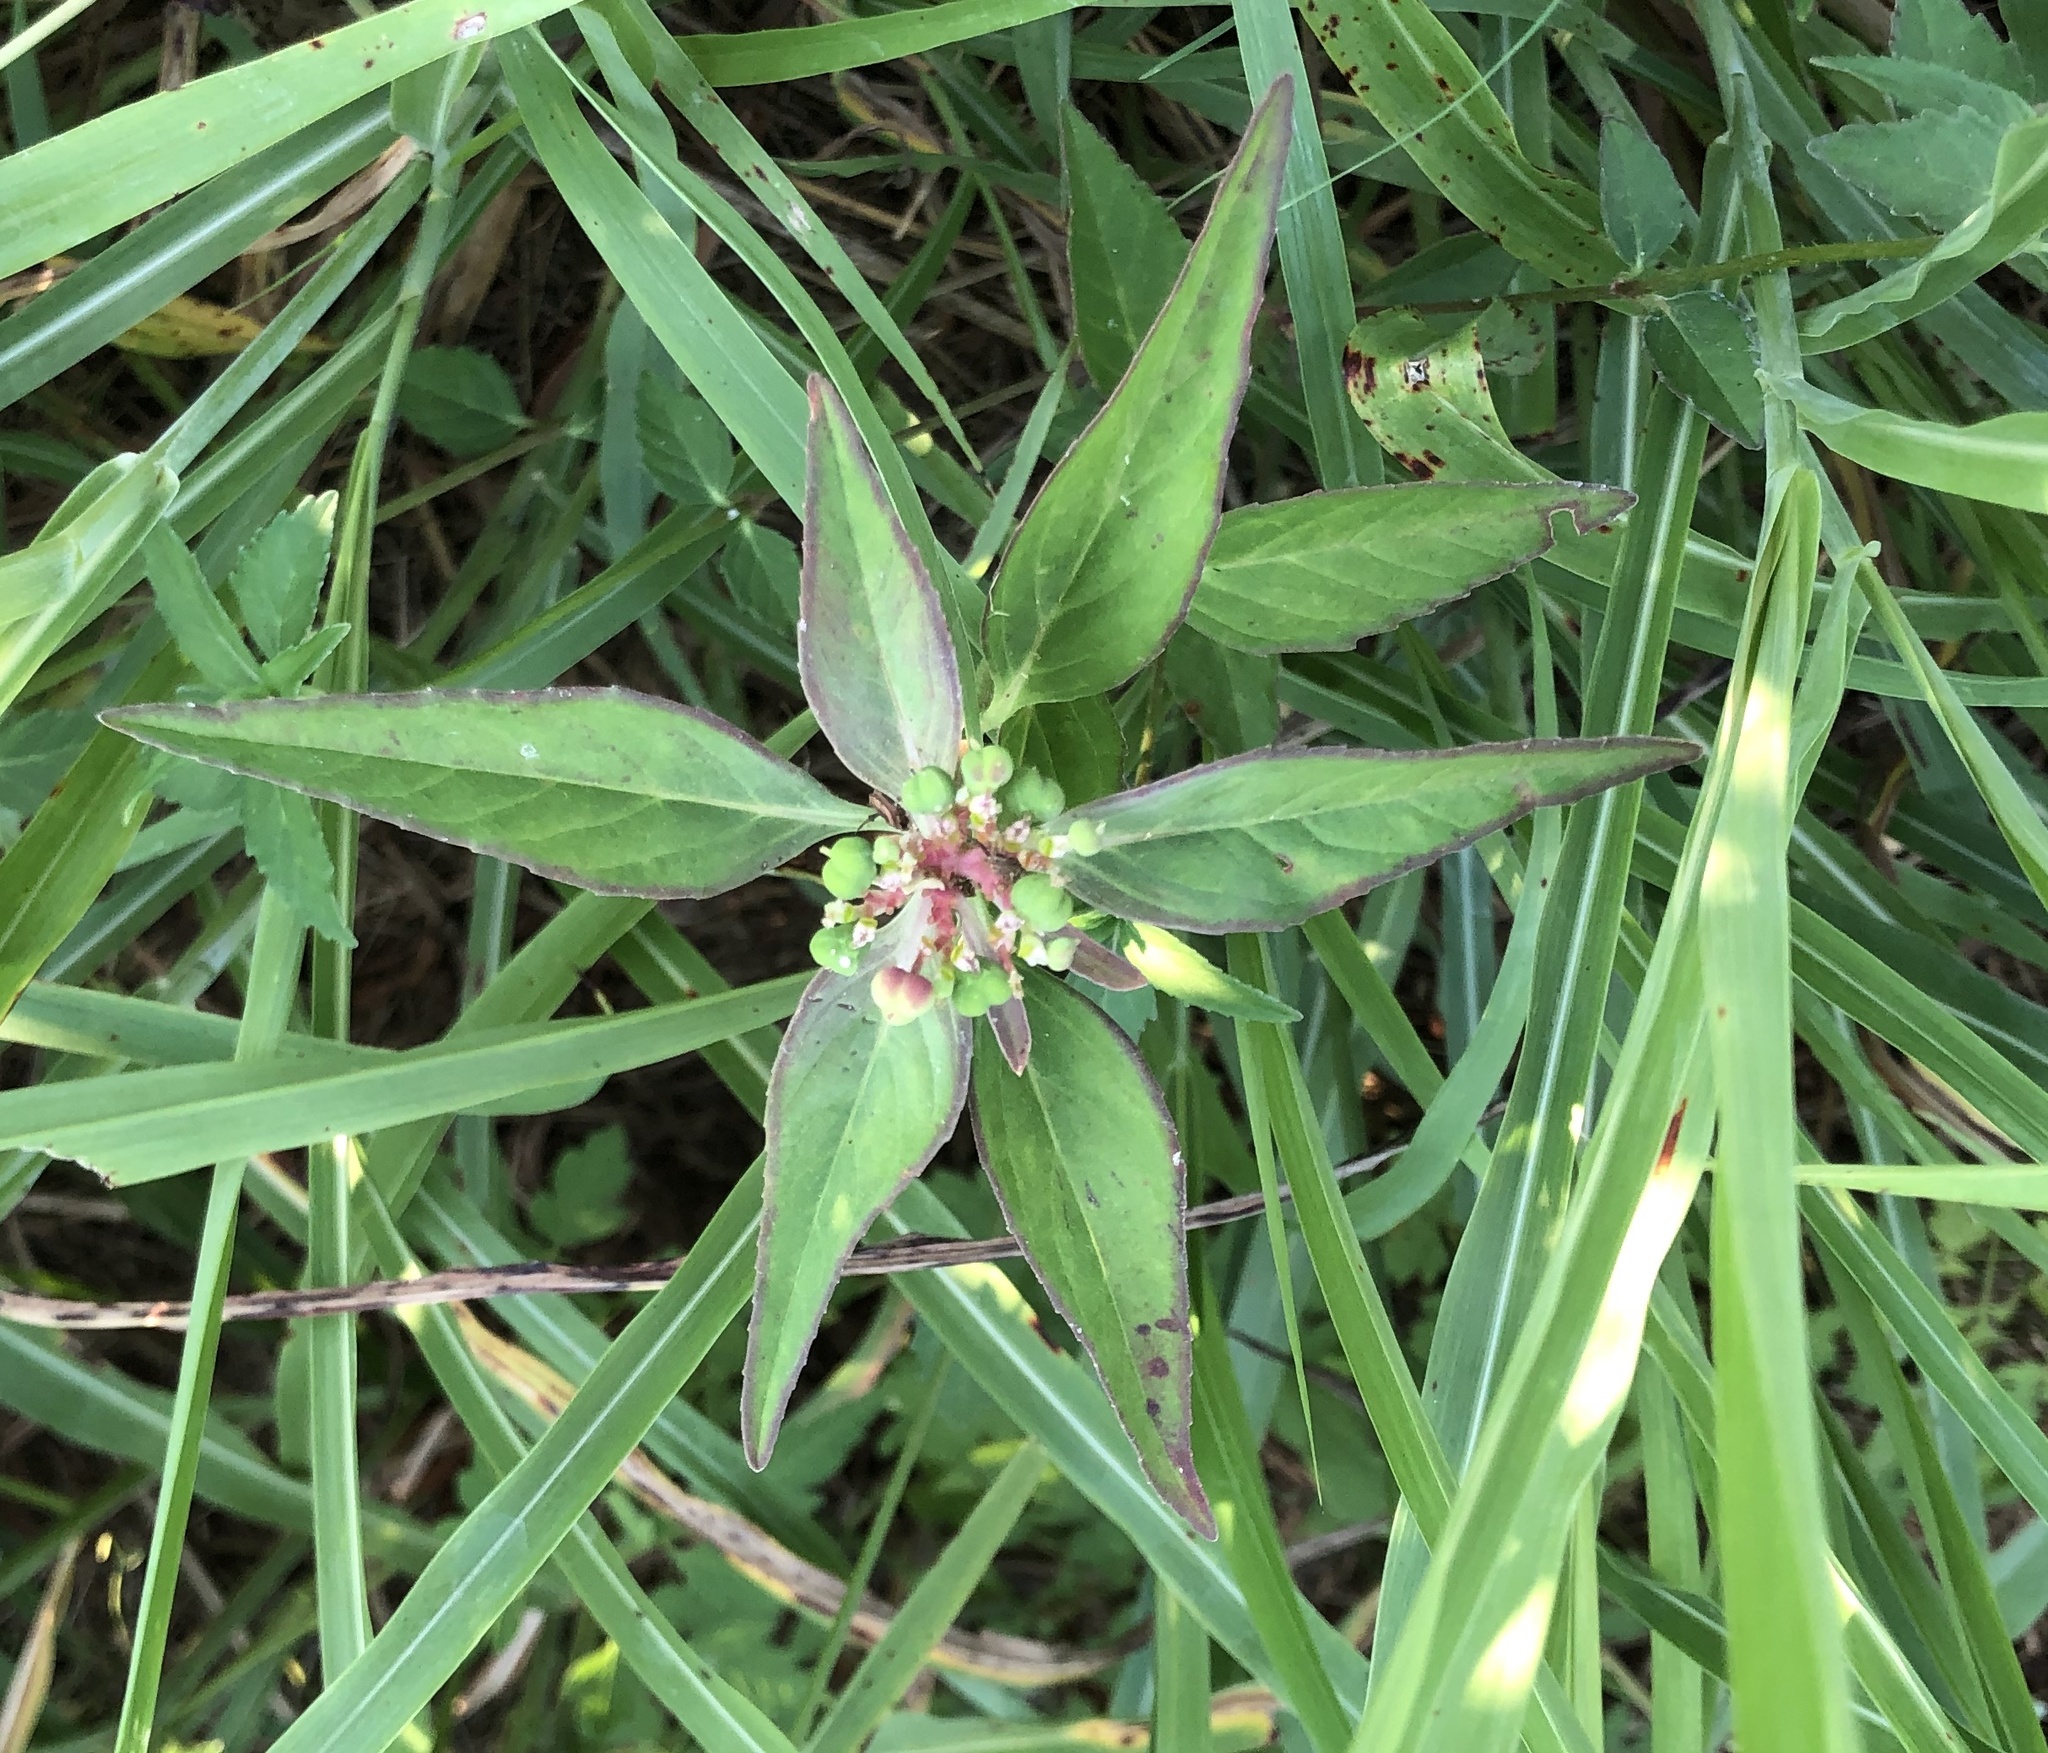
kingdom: Plantae
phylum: Tracheophyta
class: Magnoliopsida
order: Malpighiales
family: Euphorbiaceae
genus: Euphorbia
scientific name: Euphorbia dentata
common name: Dentate spurge
